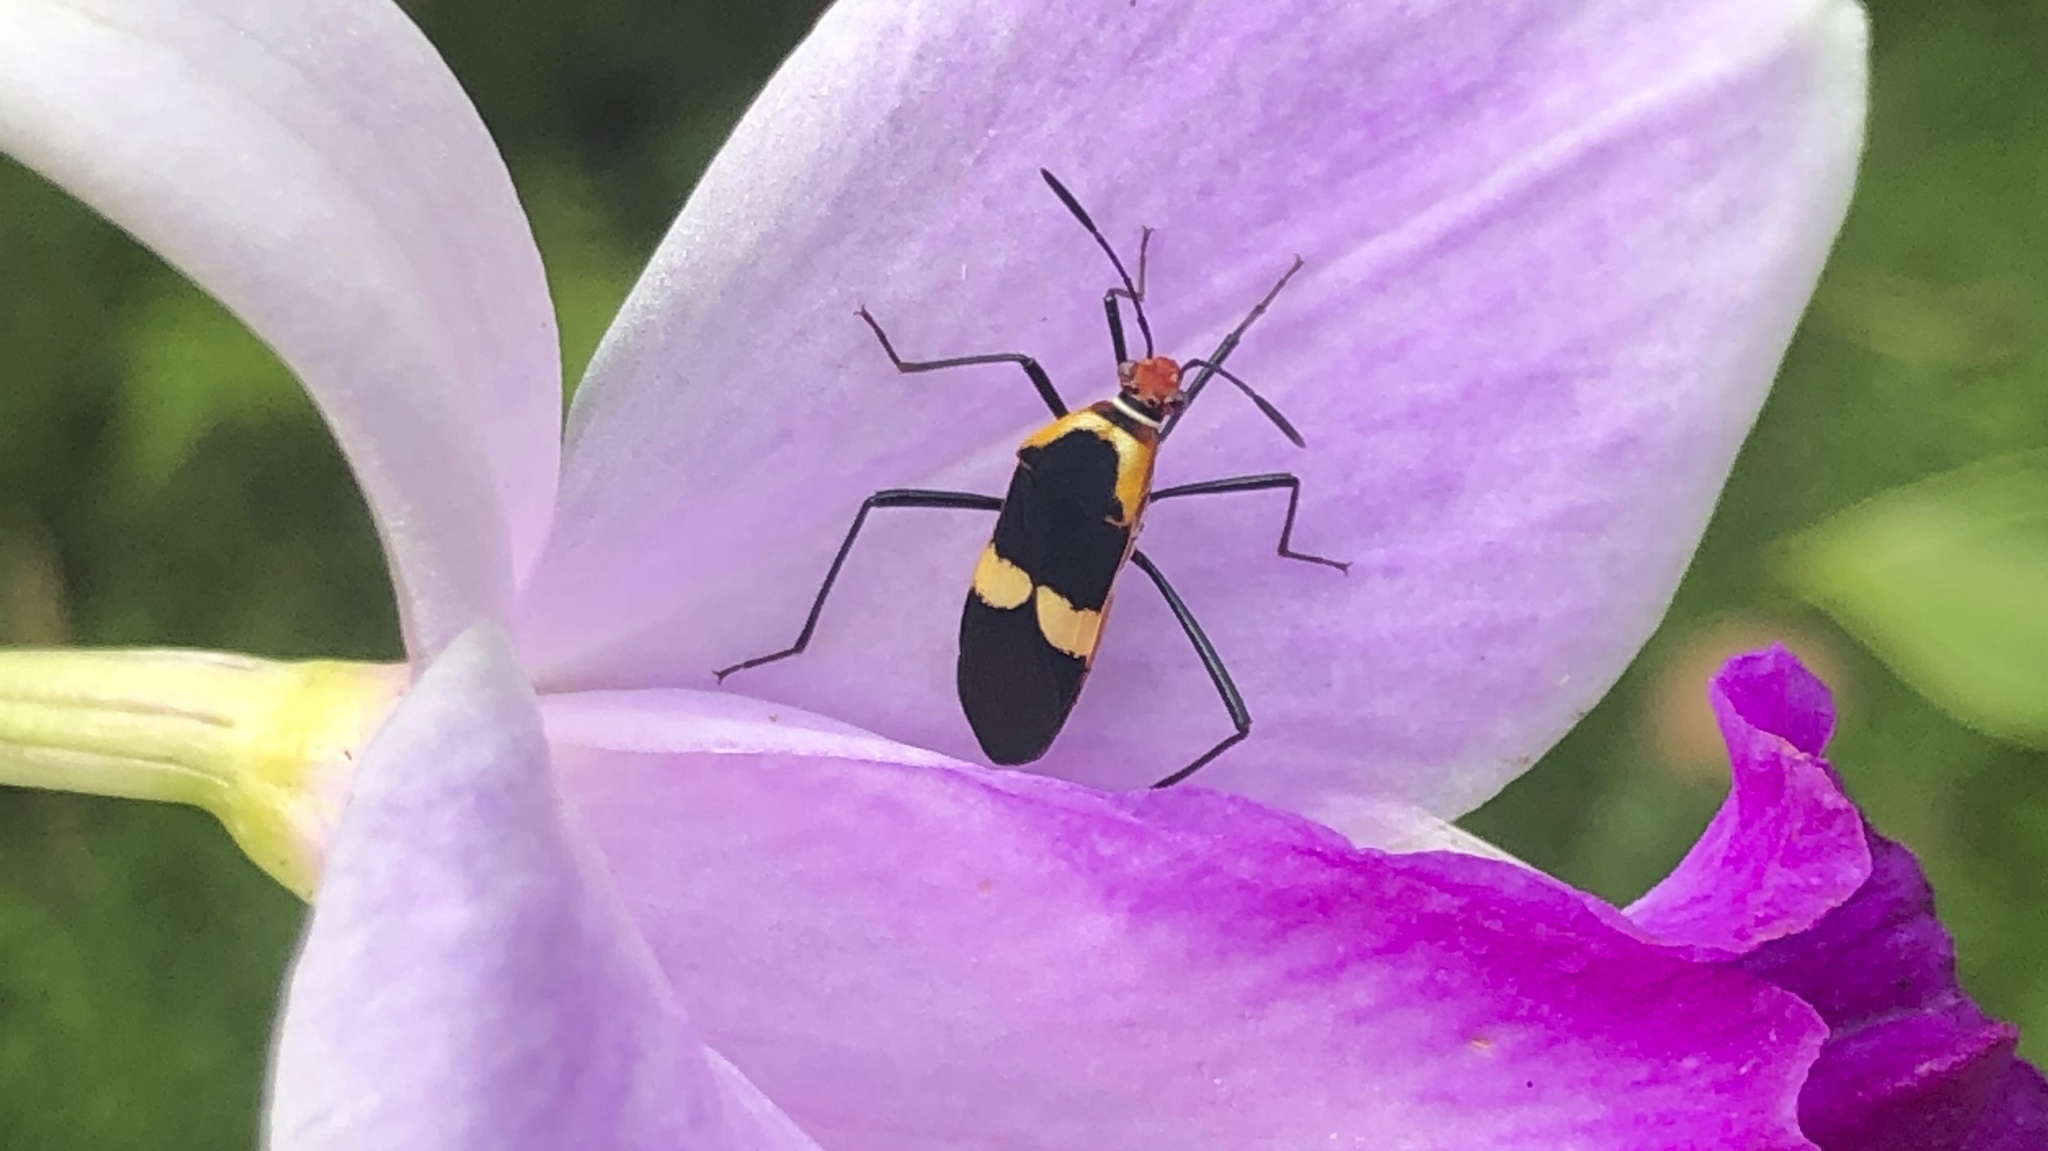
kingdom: Animalia
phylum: Arthropoda
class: Insecta
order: Hemiptera
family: Coreidae
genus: Hypselonotus
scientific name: Hypselonotus interruptus
